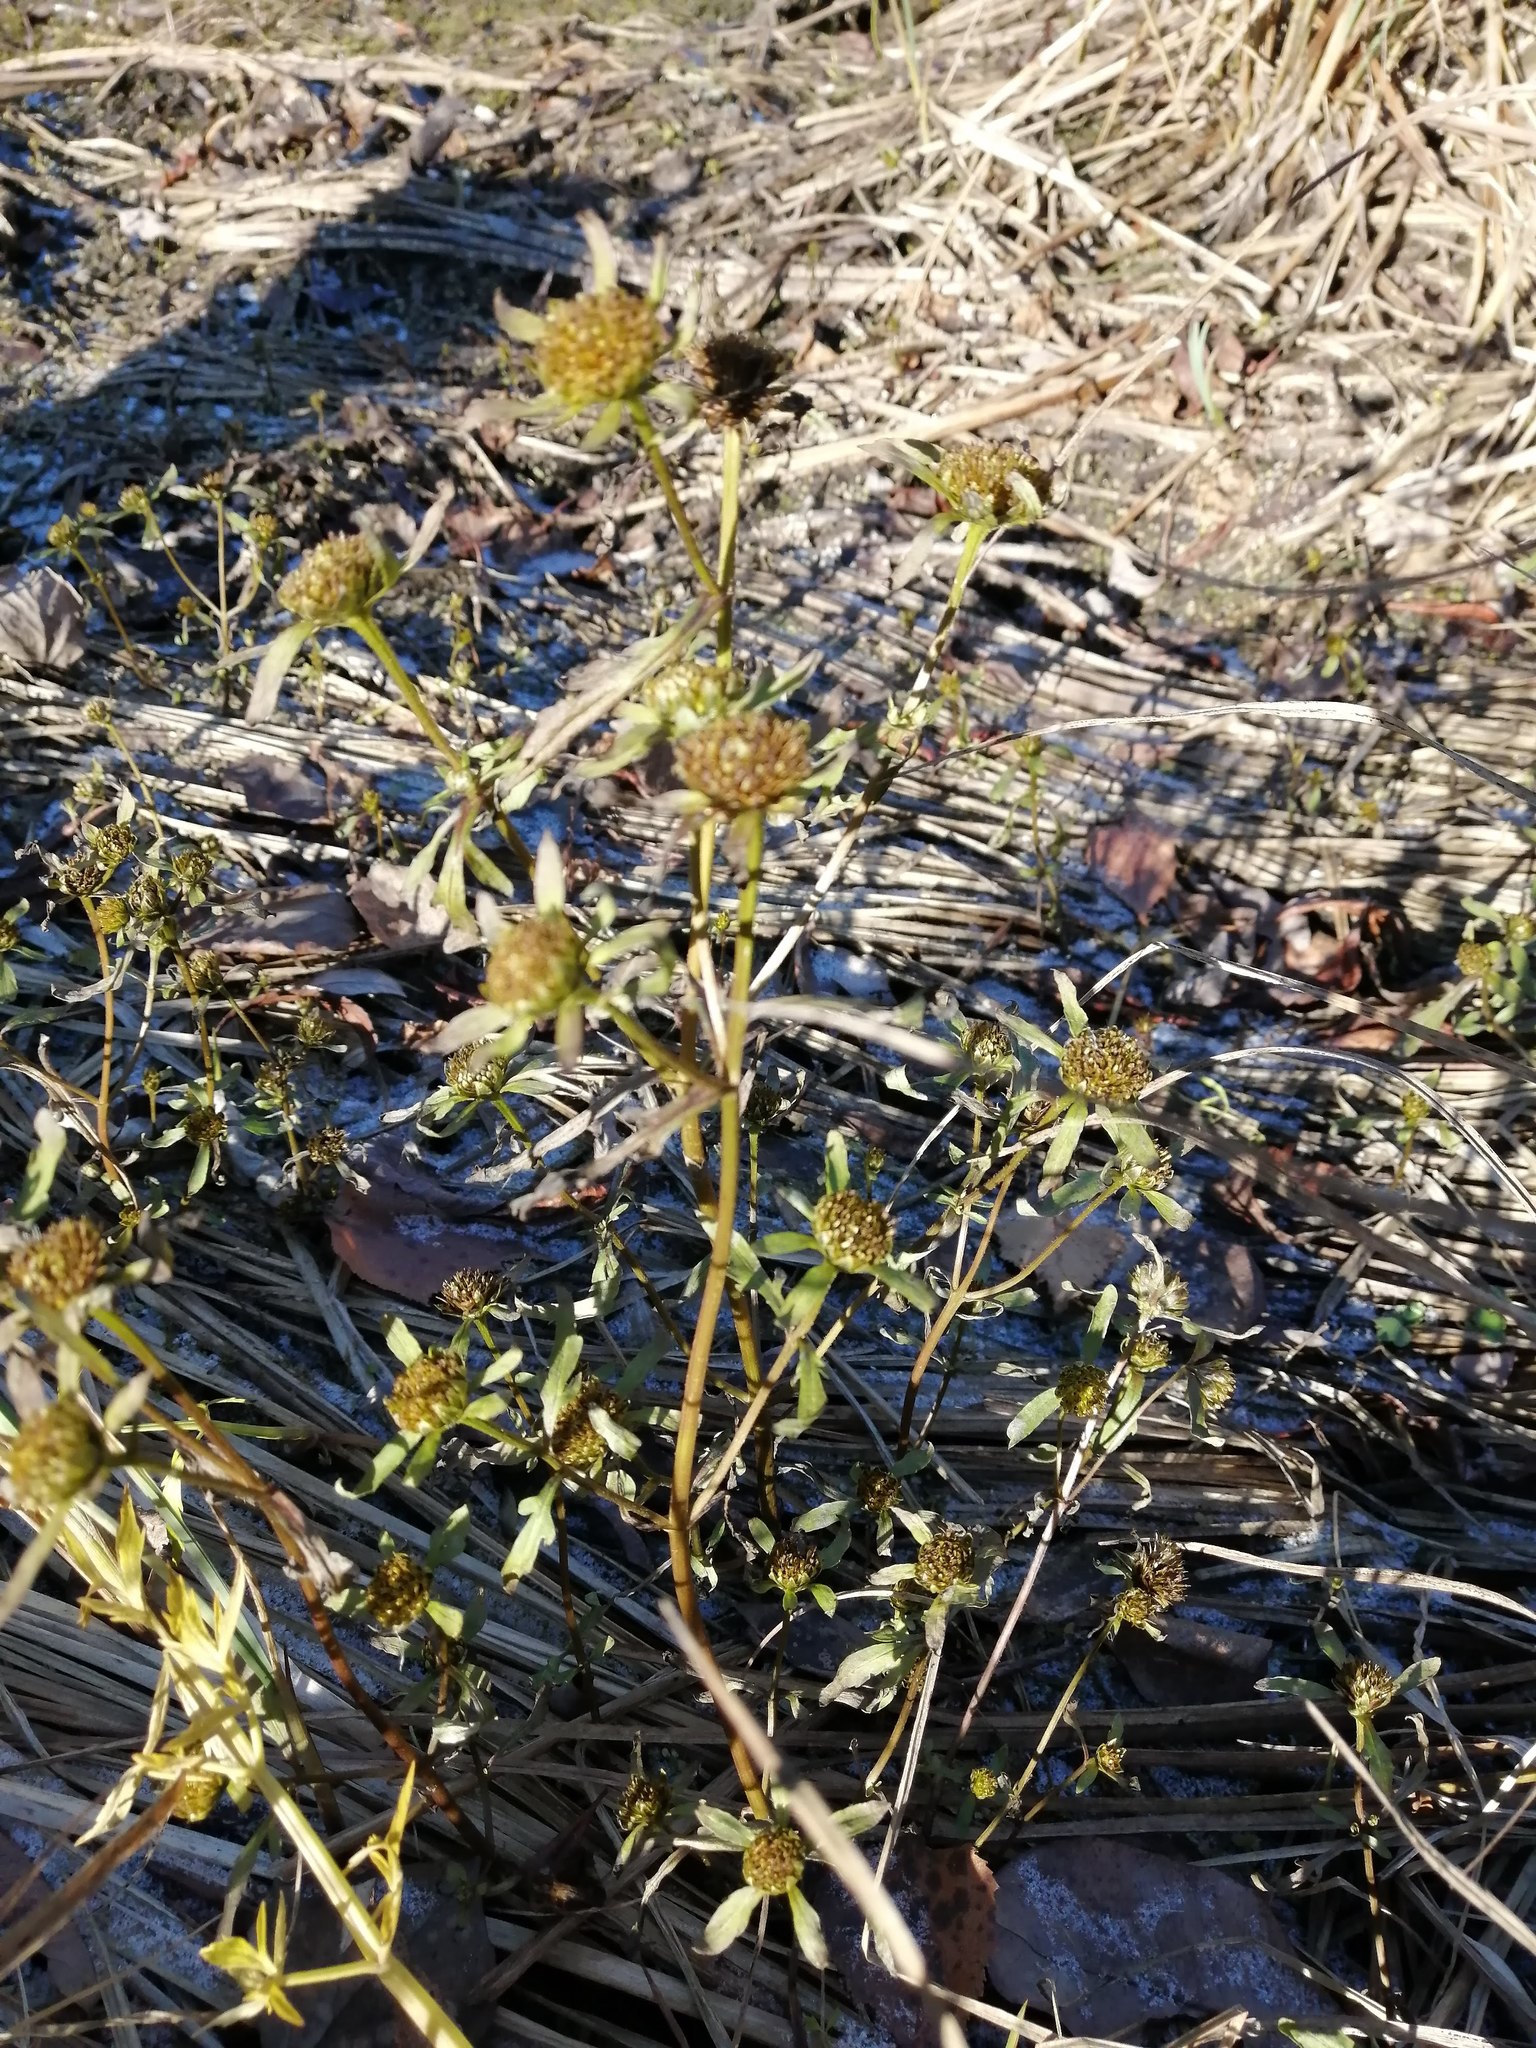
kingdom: Plantae
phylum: Tracheophyta
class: Magnoliopsida
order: Asterales
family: Asteraceae
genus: Bidens
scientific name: Bidens radiata
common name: Radiating bur-marigold
